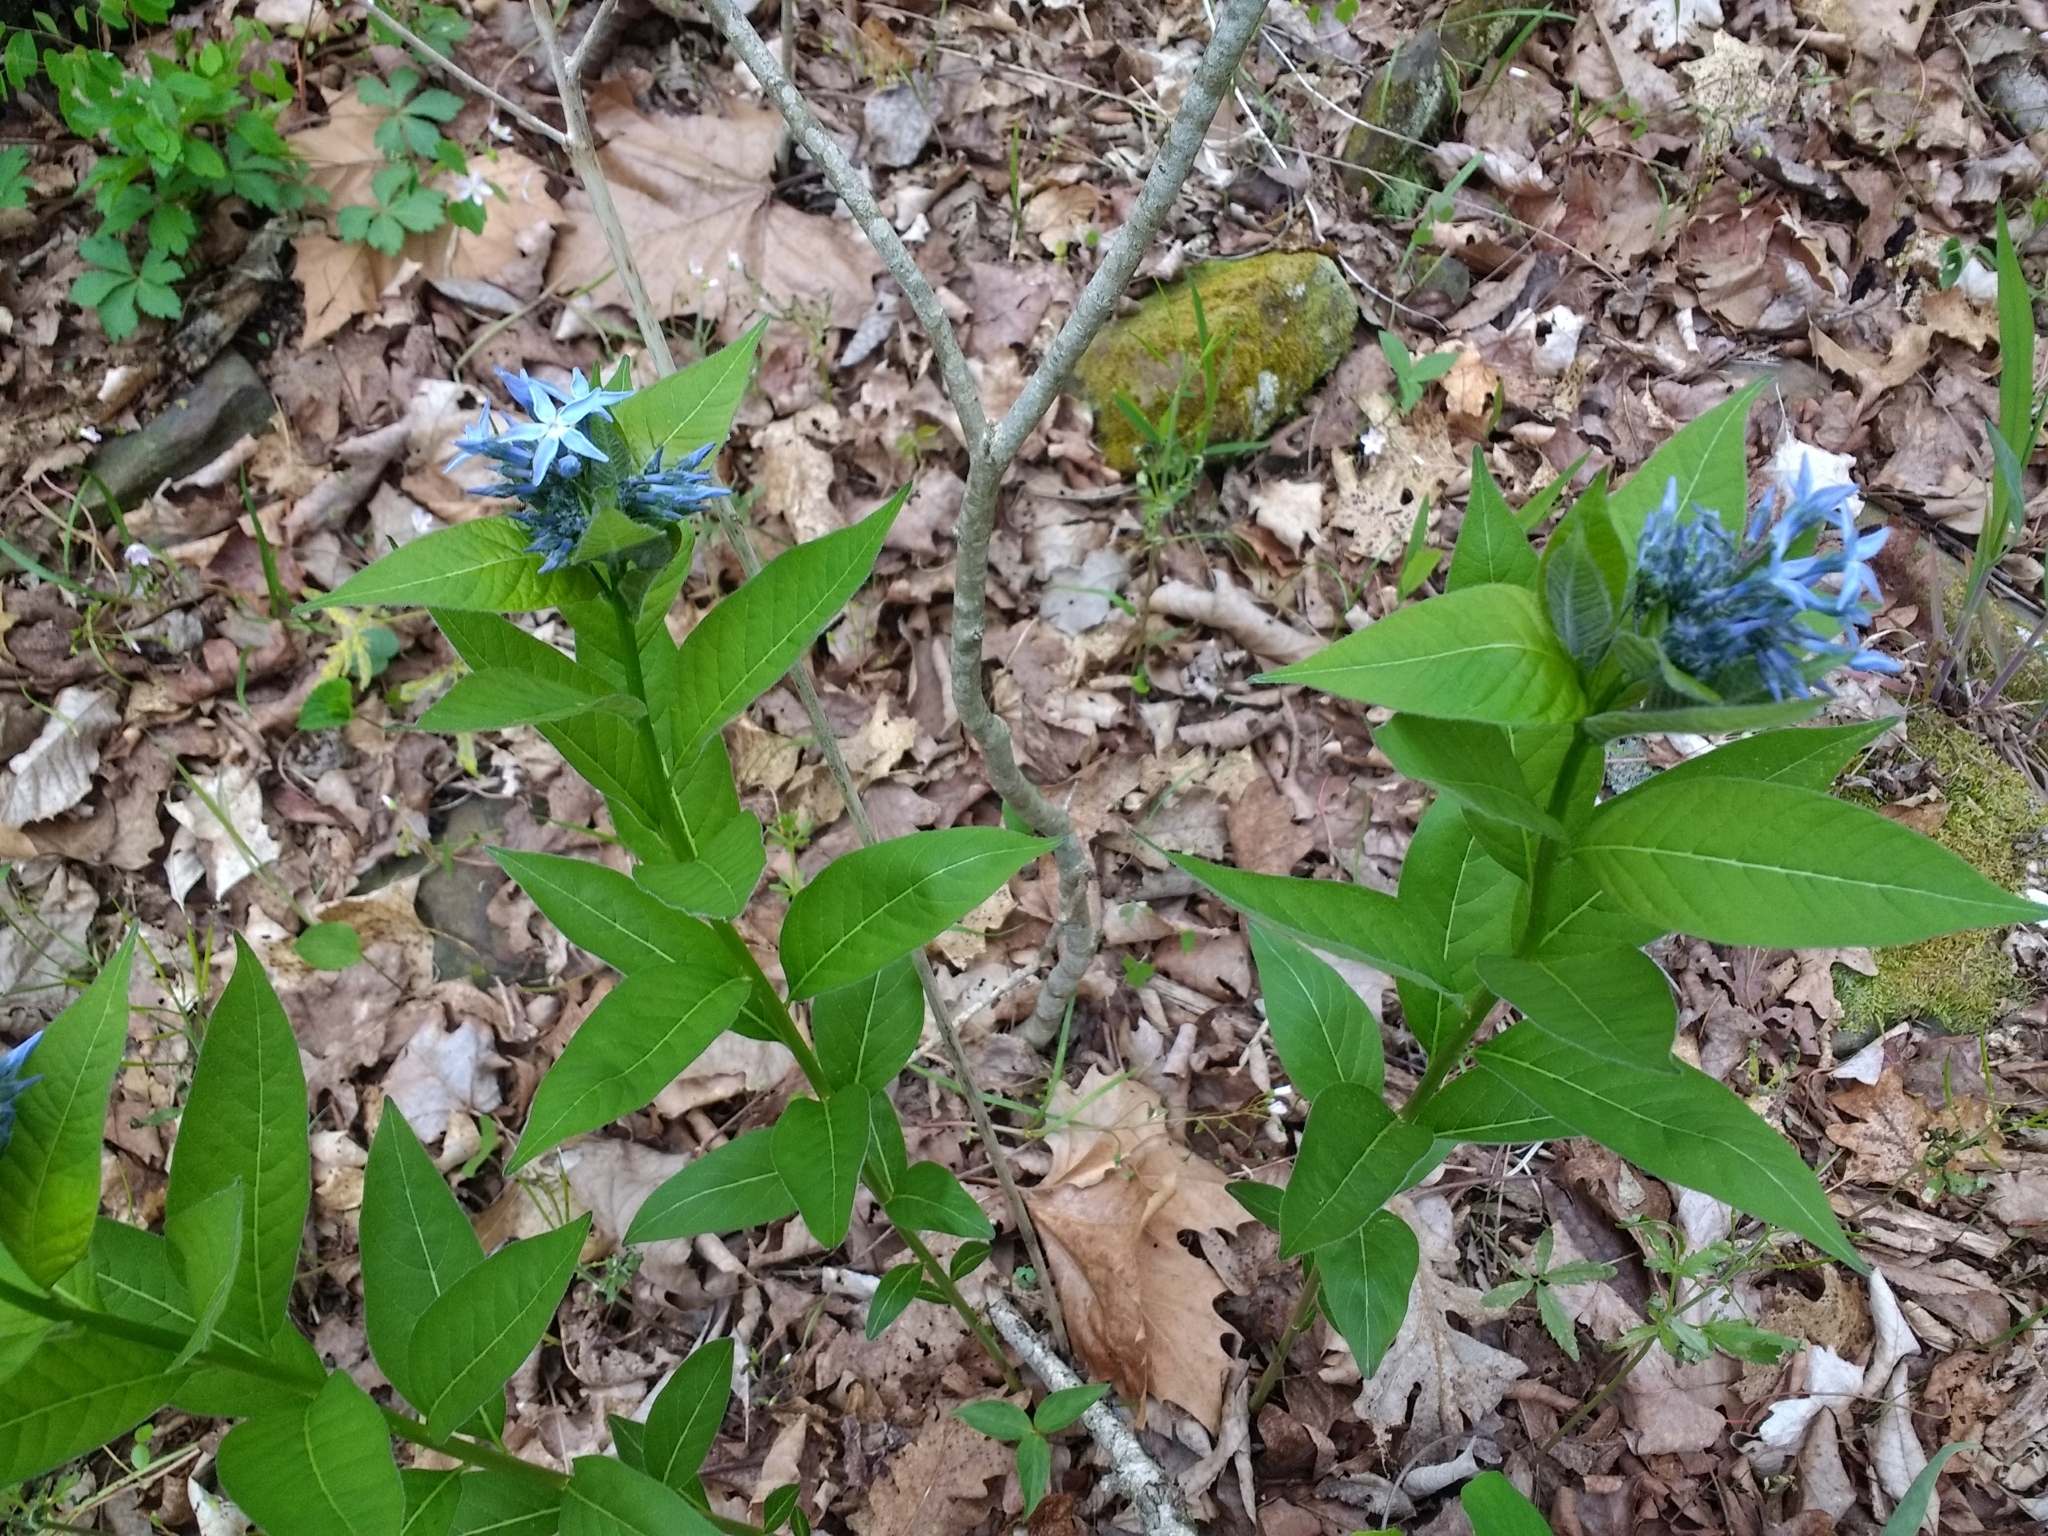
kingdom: Plantae
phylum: Tracheophyta
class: Magnoliopsida
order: Gentianales
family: Apocynaceae
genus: Amsonia
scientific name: Amsonia tabernaemontana
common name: Texas-star
